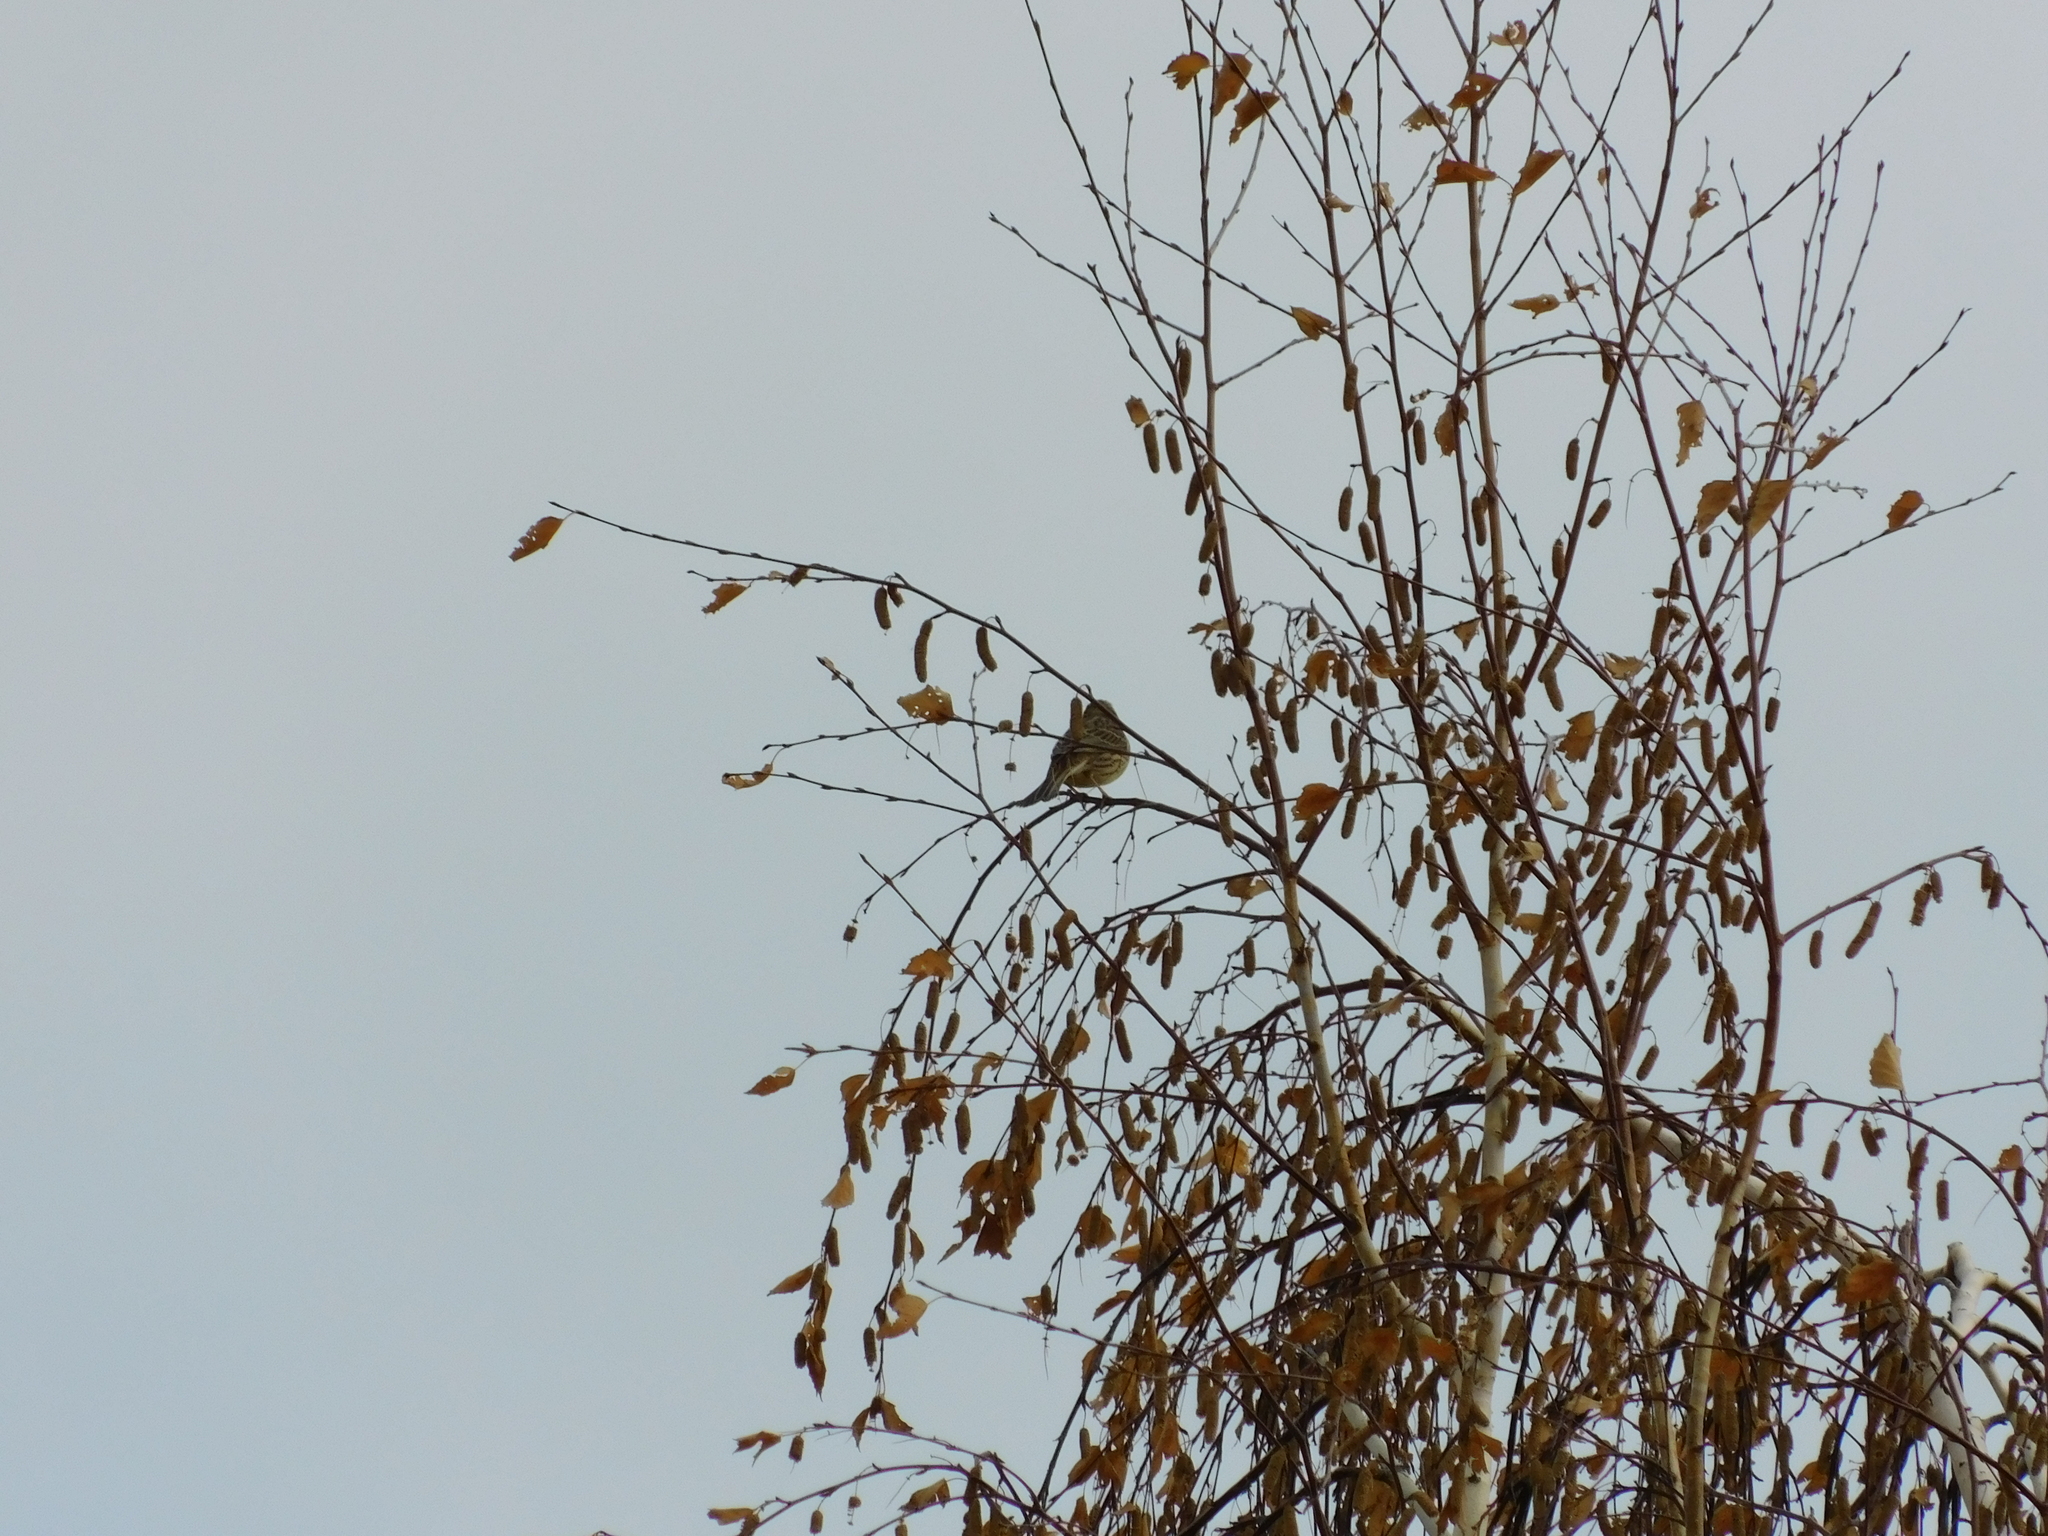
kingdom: Animalia
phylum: Chordata
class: Aves
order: Passeriformes
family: Emberizidae
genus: Emberiza
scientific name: Emberiza citrinella
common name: Yellowhammer
